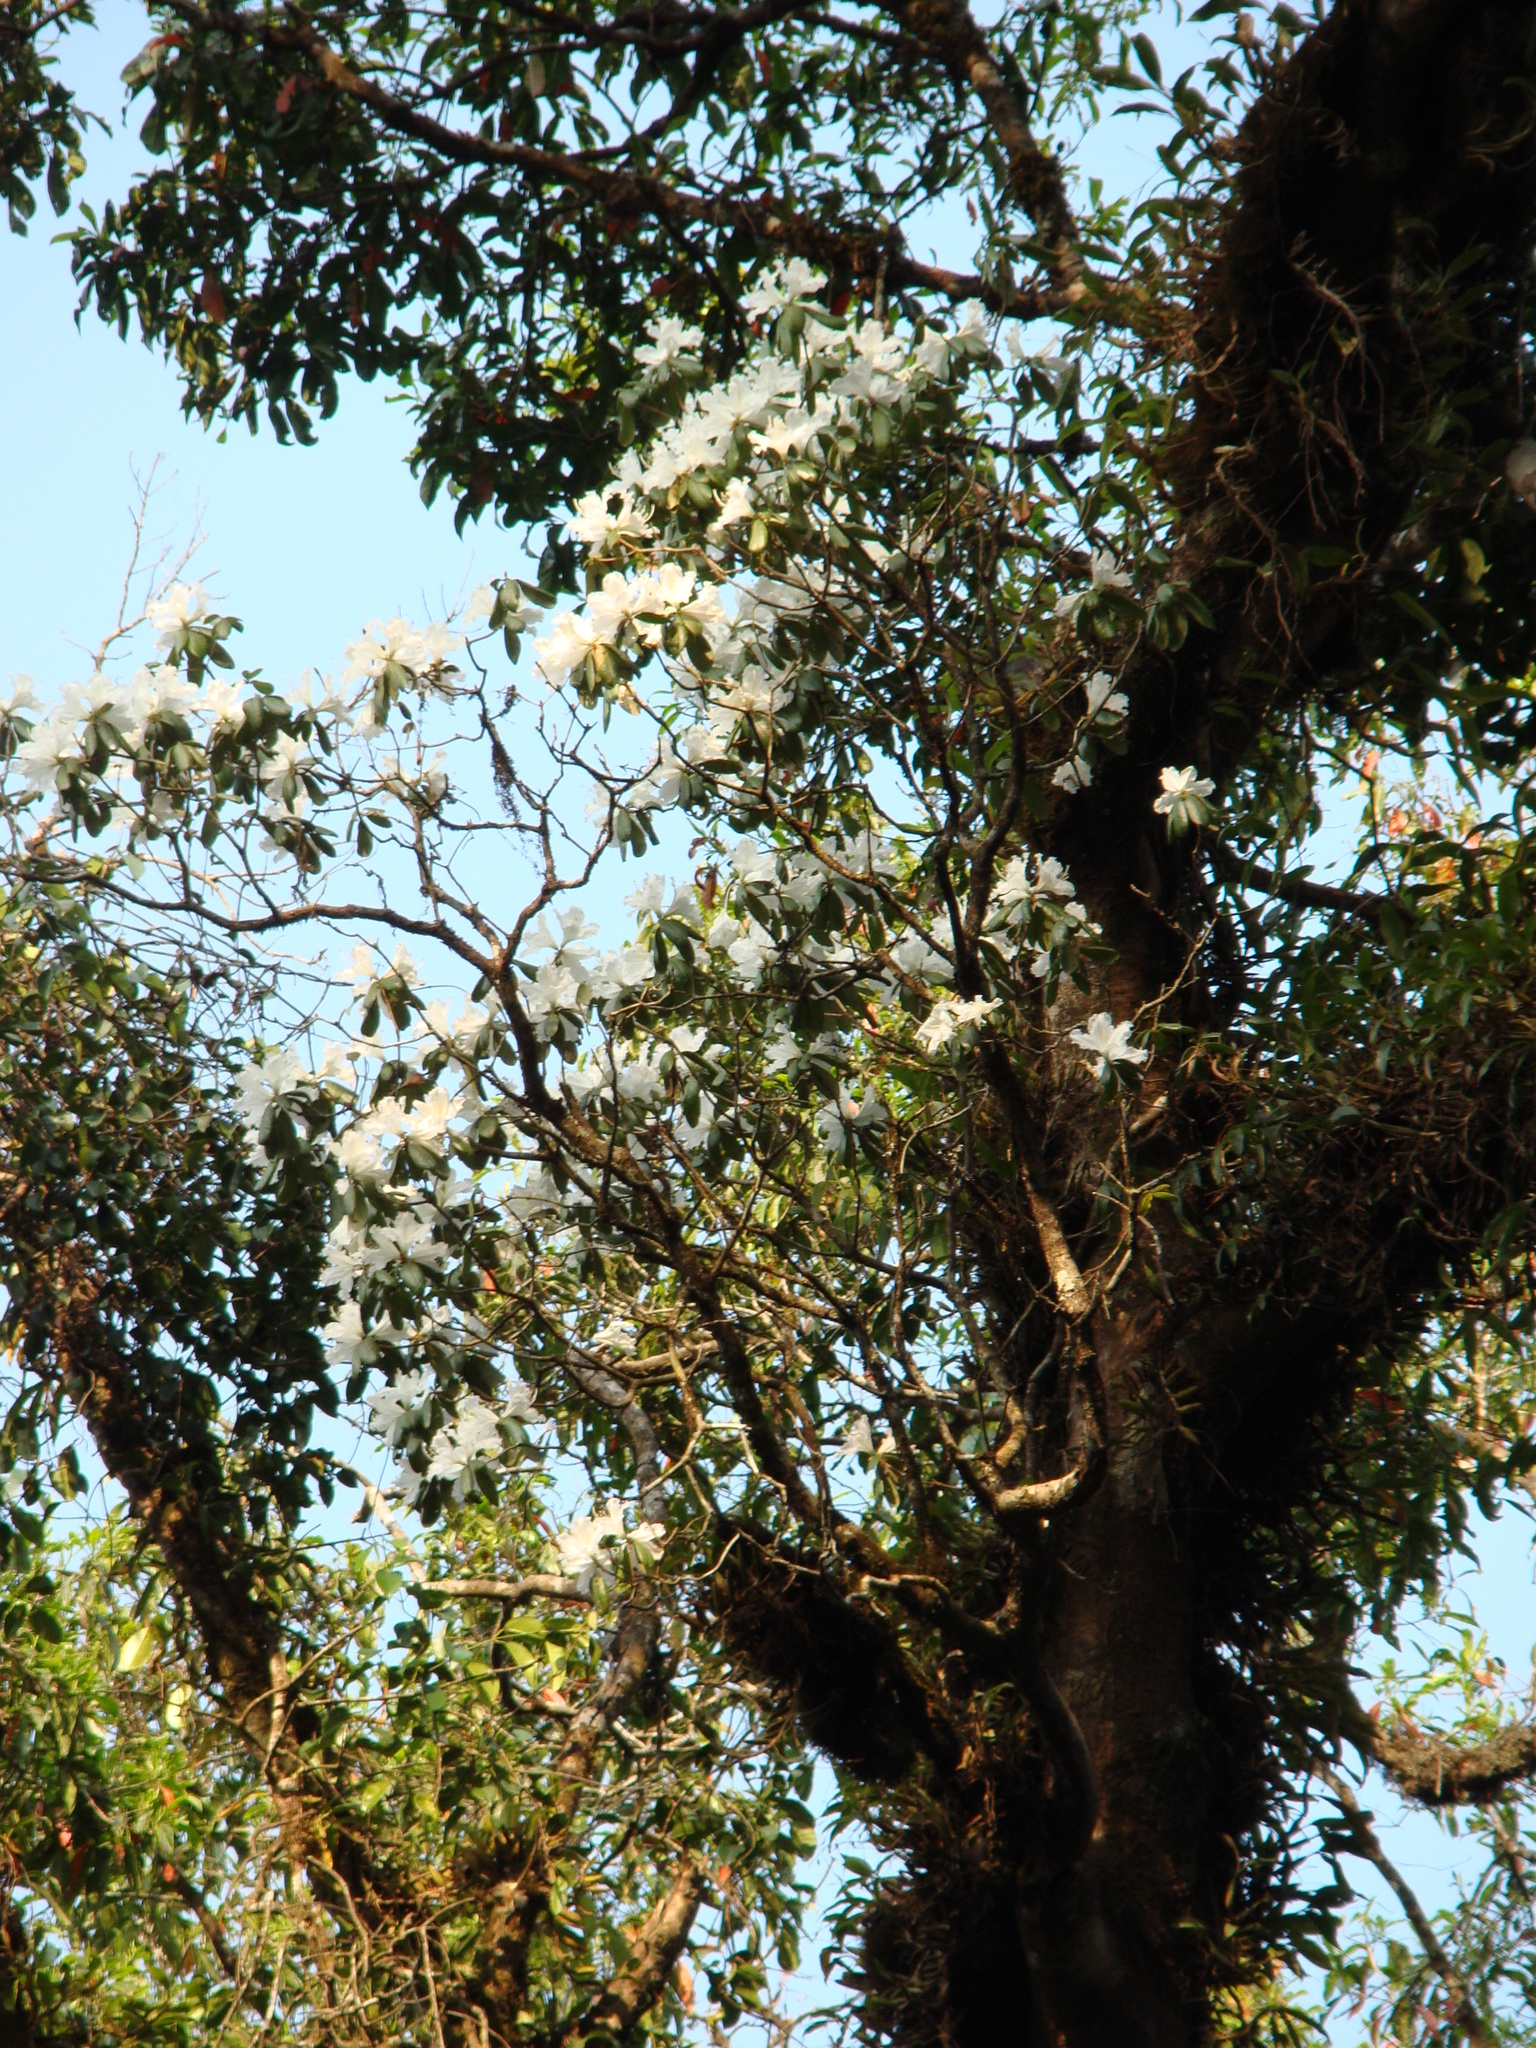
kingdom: Plantae
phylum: Tracheophyta
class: Magnoliopsida
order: Ericales
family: Ericaceae
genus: Rhododendron
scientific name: Rhododendron veitchianum
